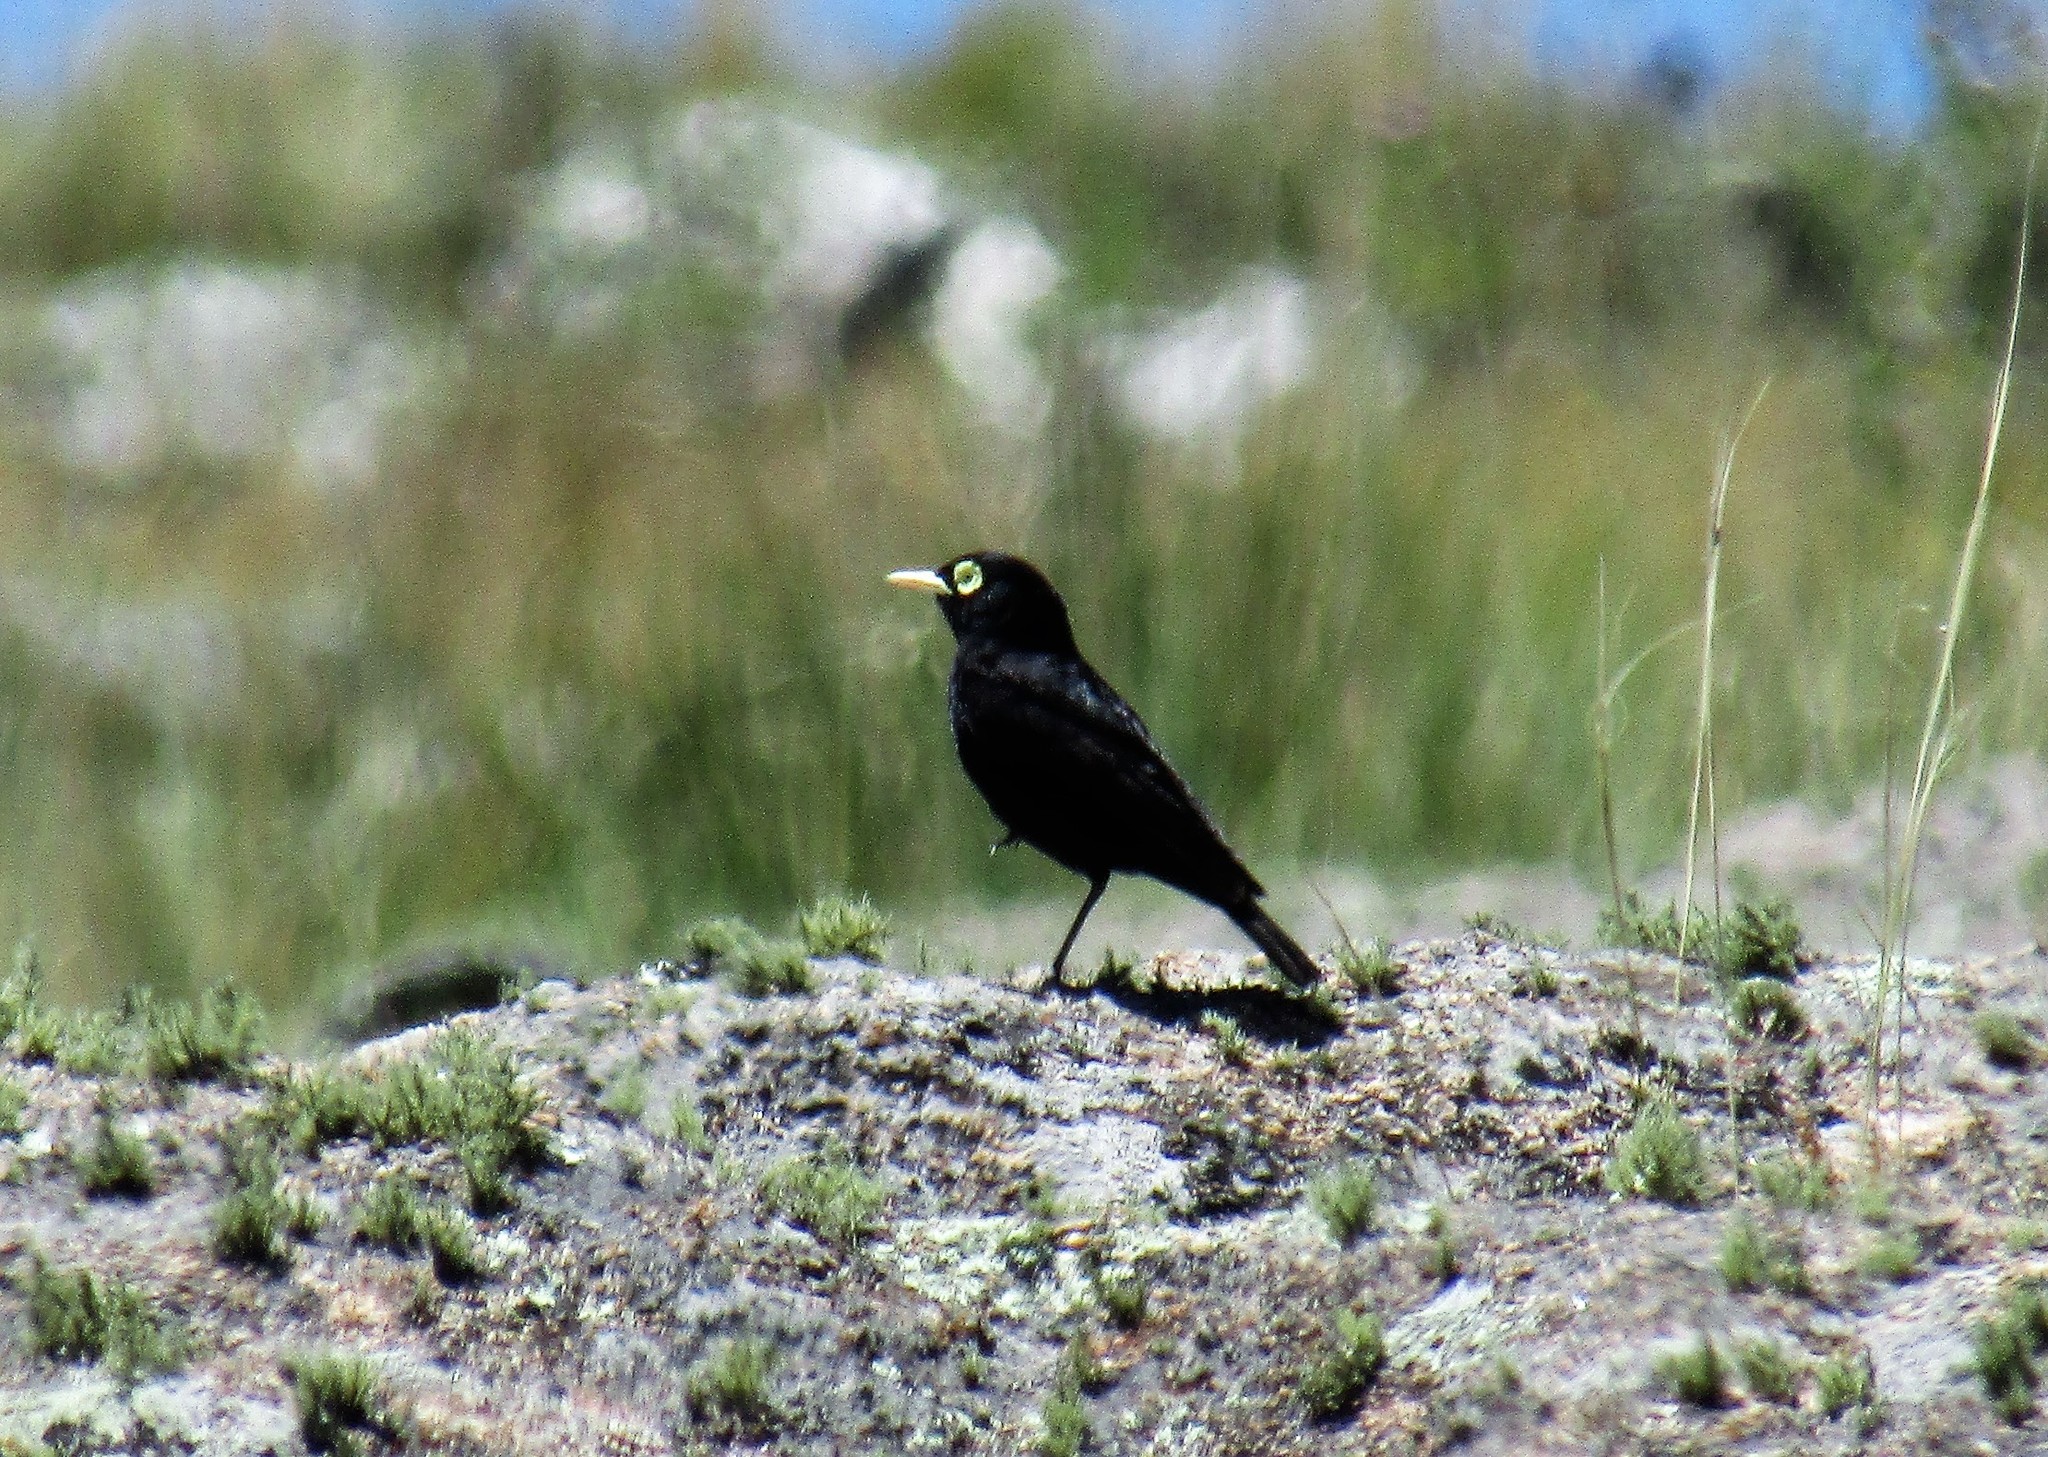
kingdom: Animalia
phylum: Chordata
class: Aves
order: Passeriformes
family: Tyrannidae
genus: Hymenops
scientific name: Hymenops perspicillatus
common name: Spectacled tyrant
